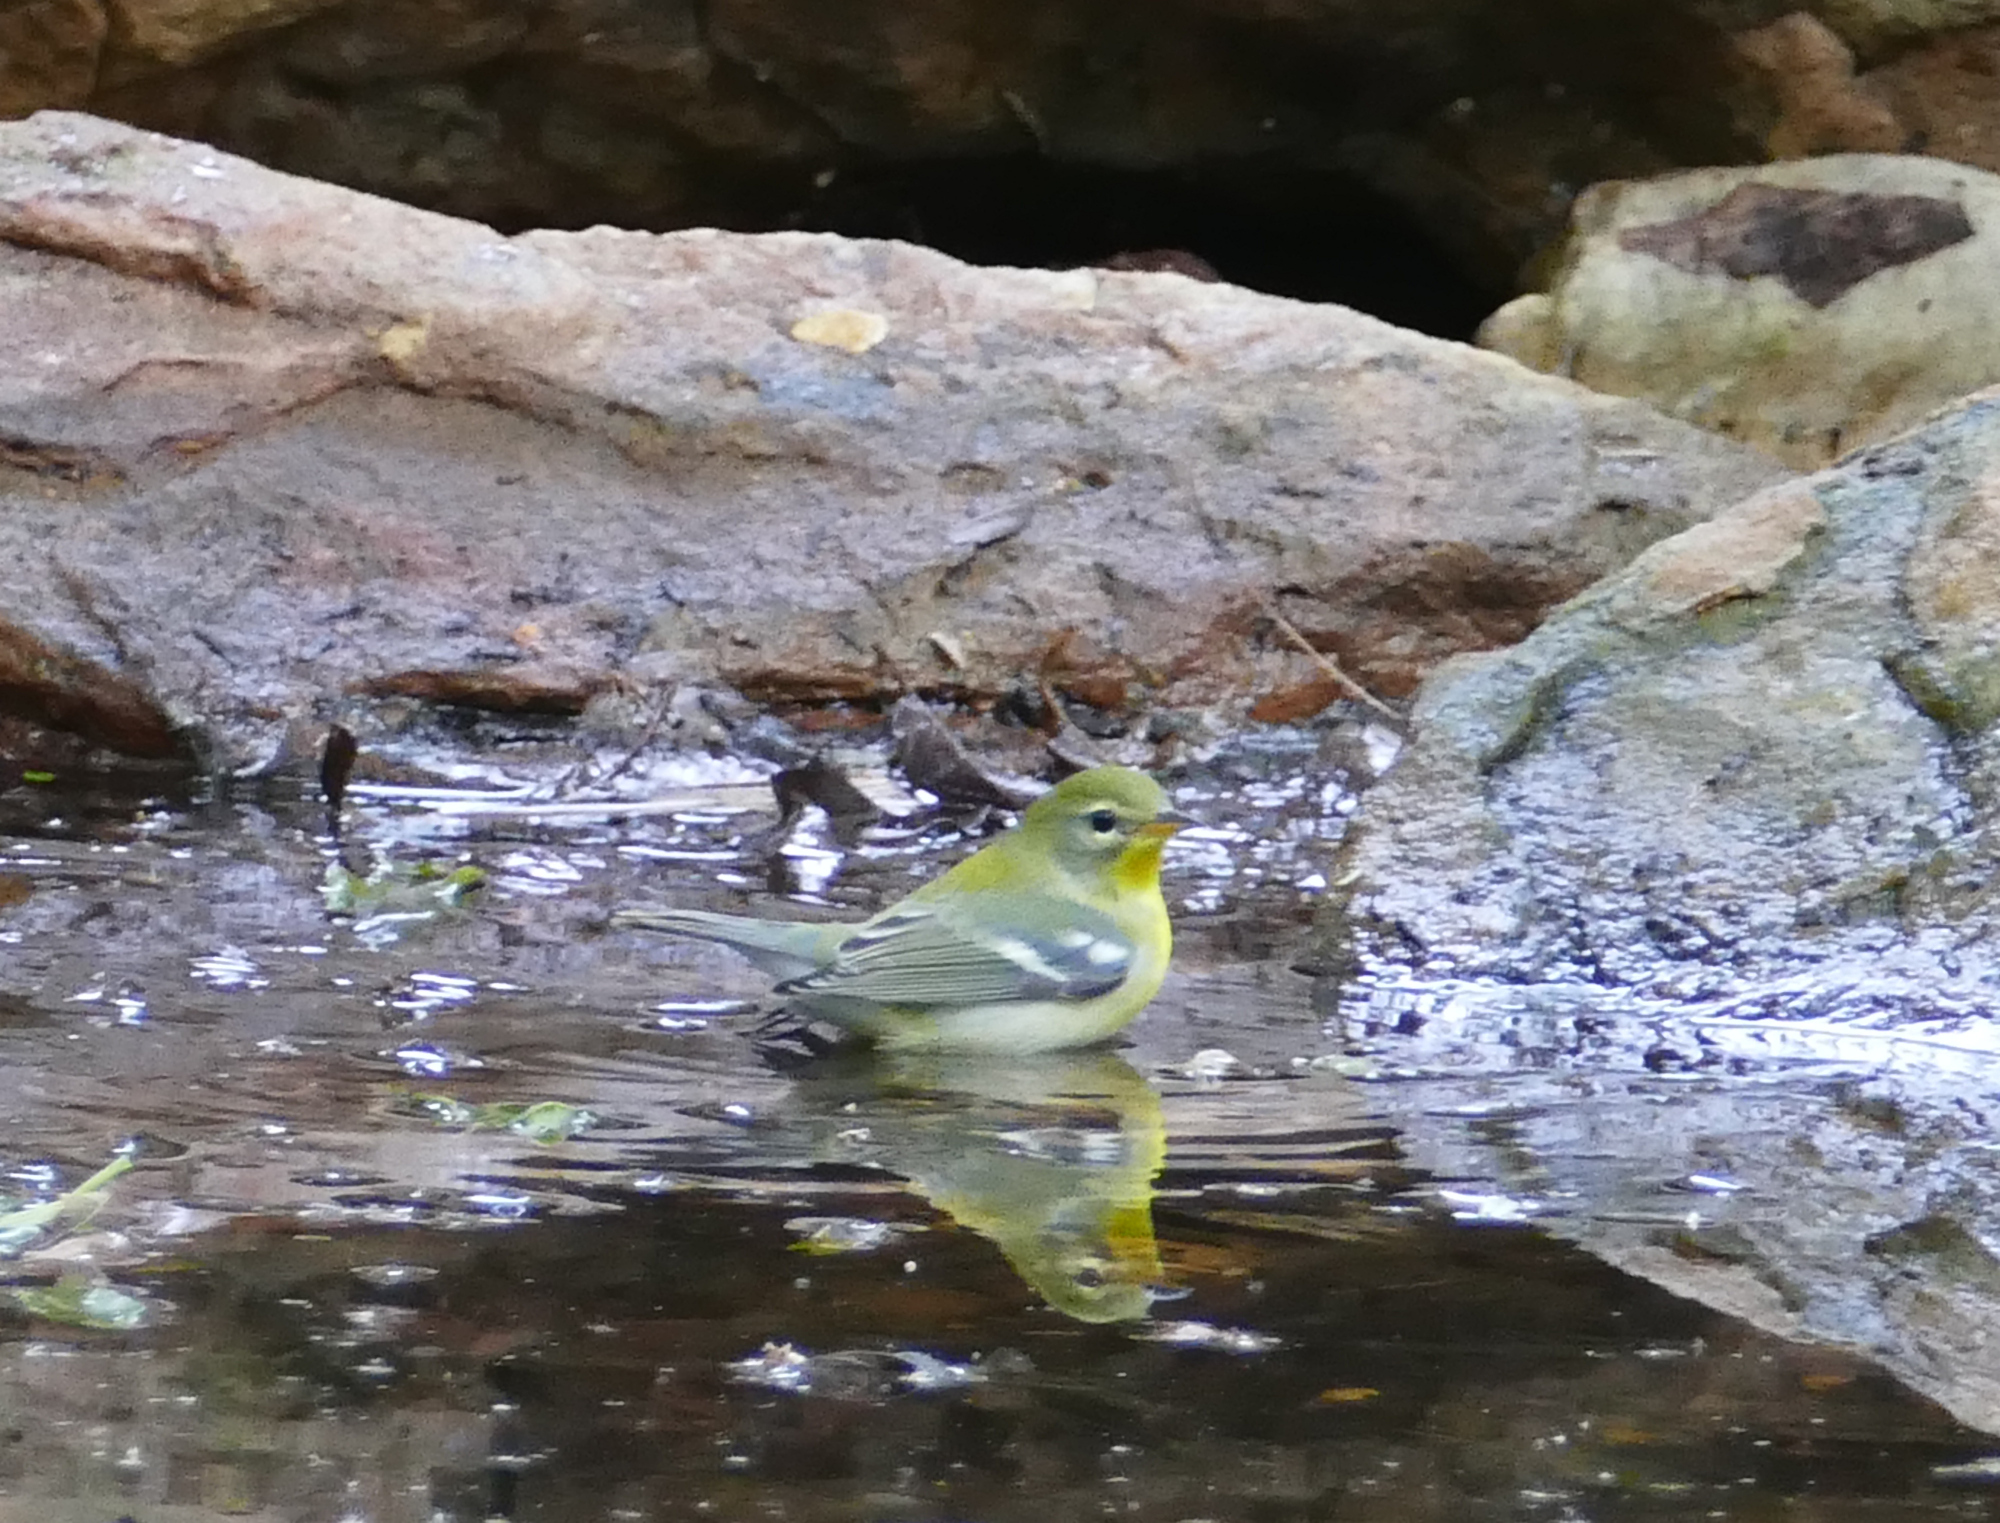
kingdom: Animalia
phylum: Chordata
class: Aves
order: Passeriformes
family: Parulidae
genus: Setophaga
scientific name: Setophaga americana
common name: Northern parula
